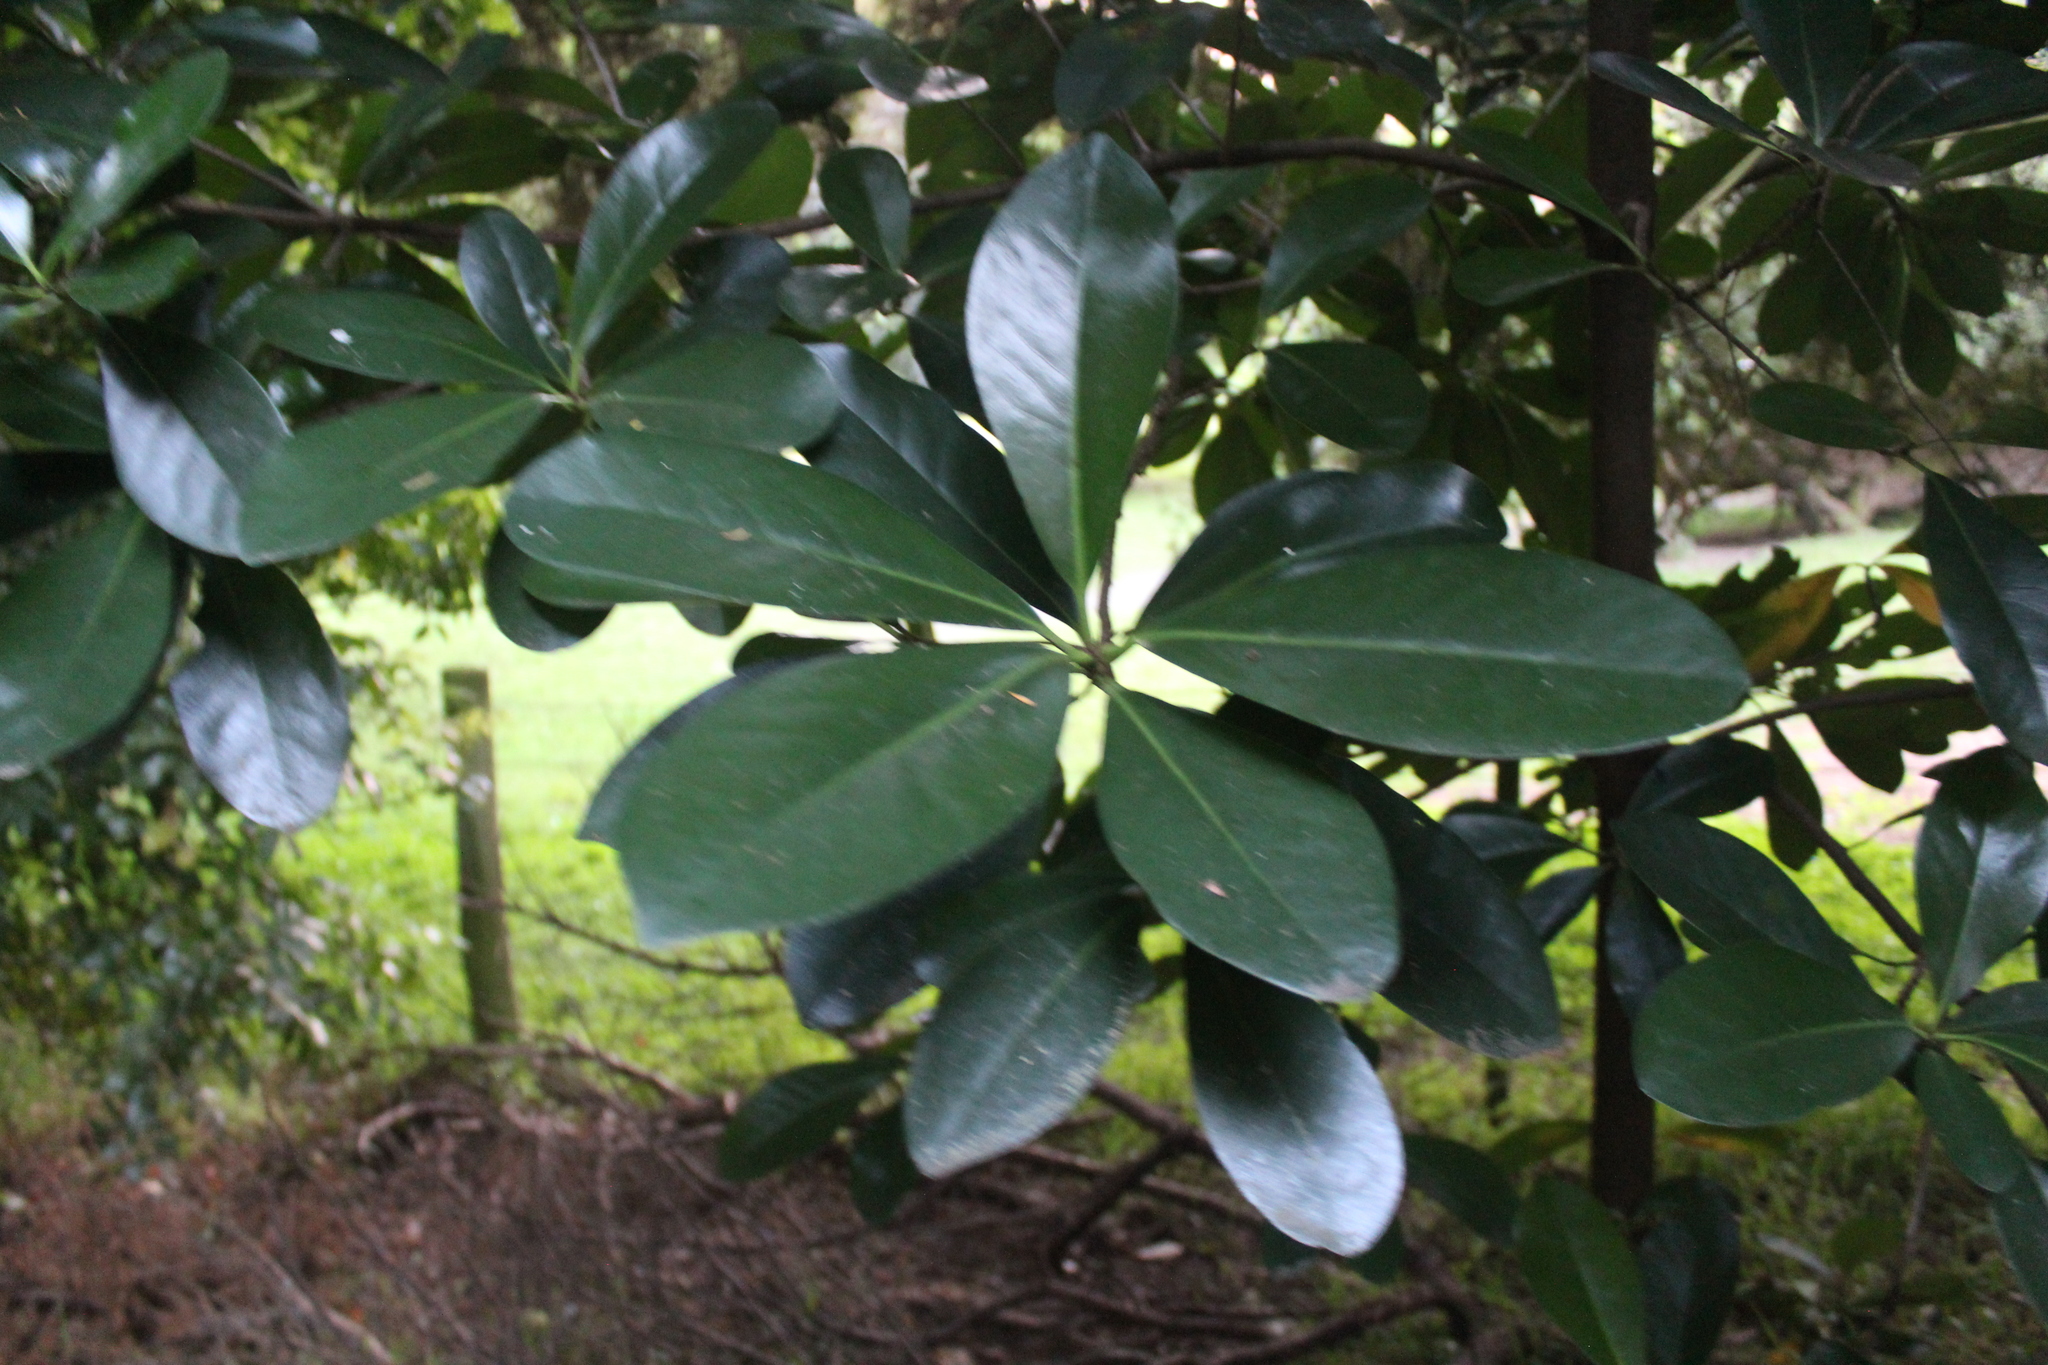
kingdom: Plantae
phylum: Tracheophyta
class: Magnoliopsida
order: Cucurbitales
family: Corynocarpaceae
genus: Corynocarpus
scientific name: Corynocarpus laevigatus
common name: New zealand laurel
